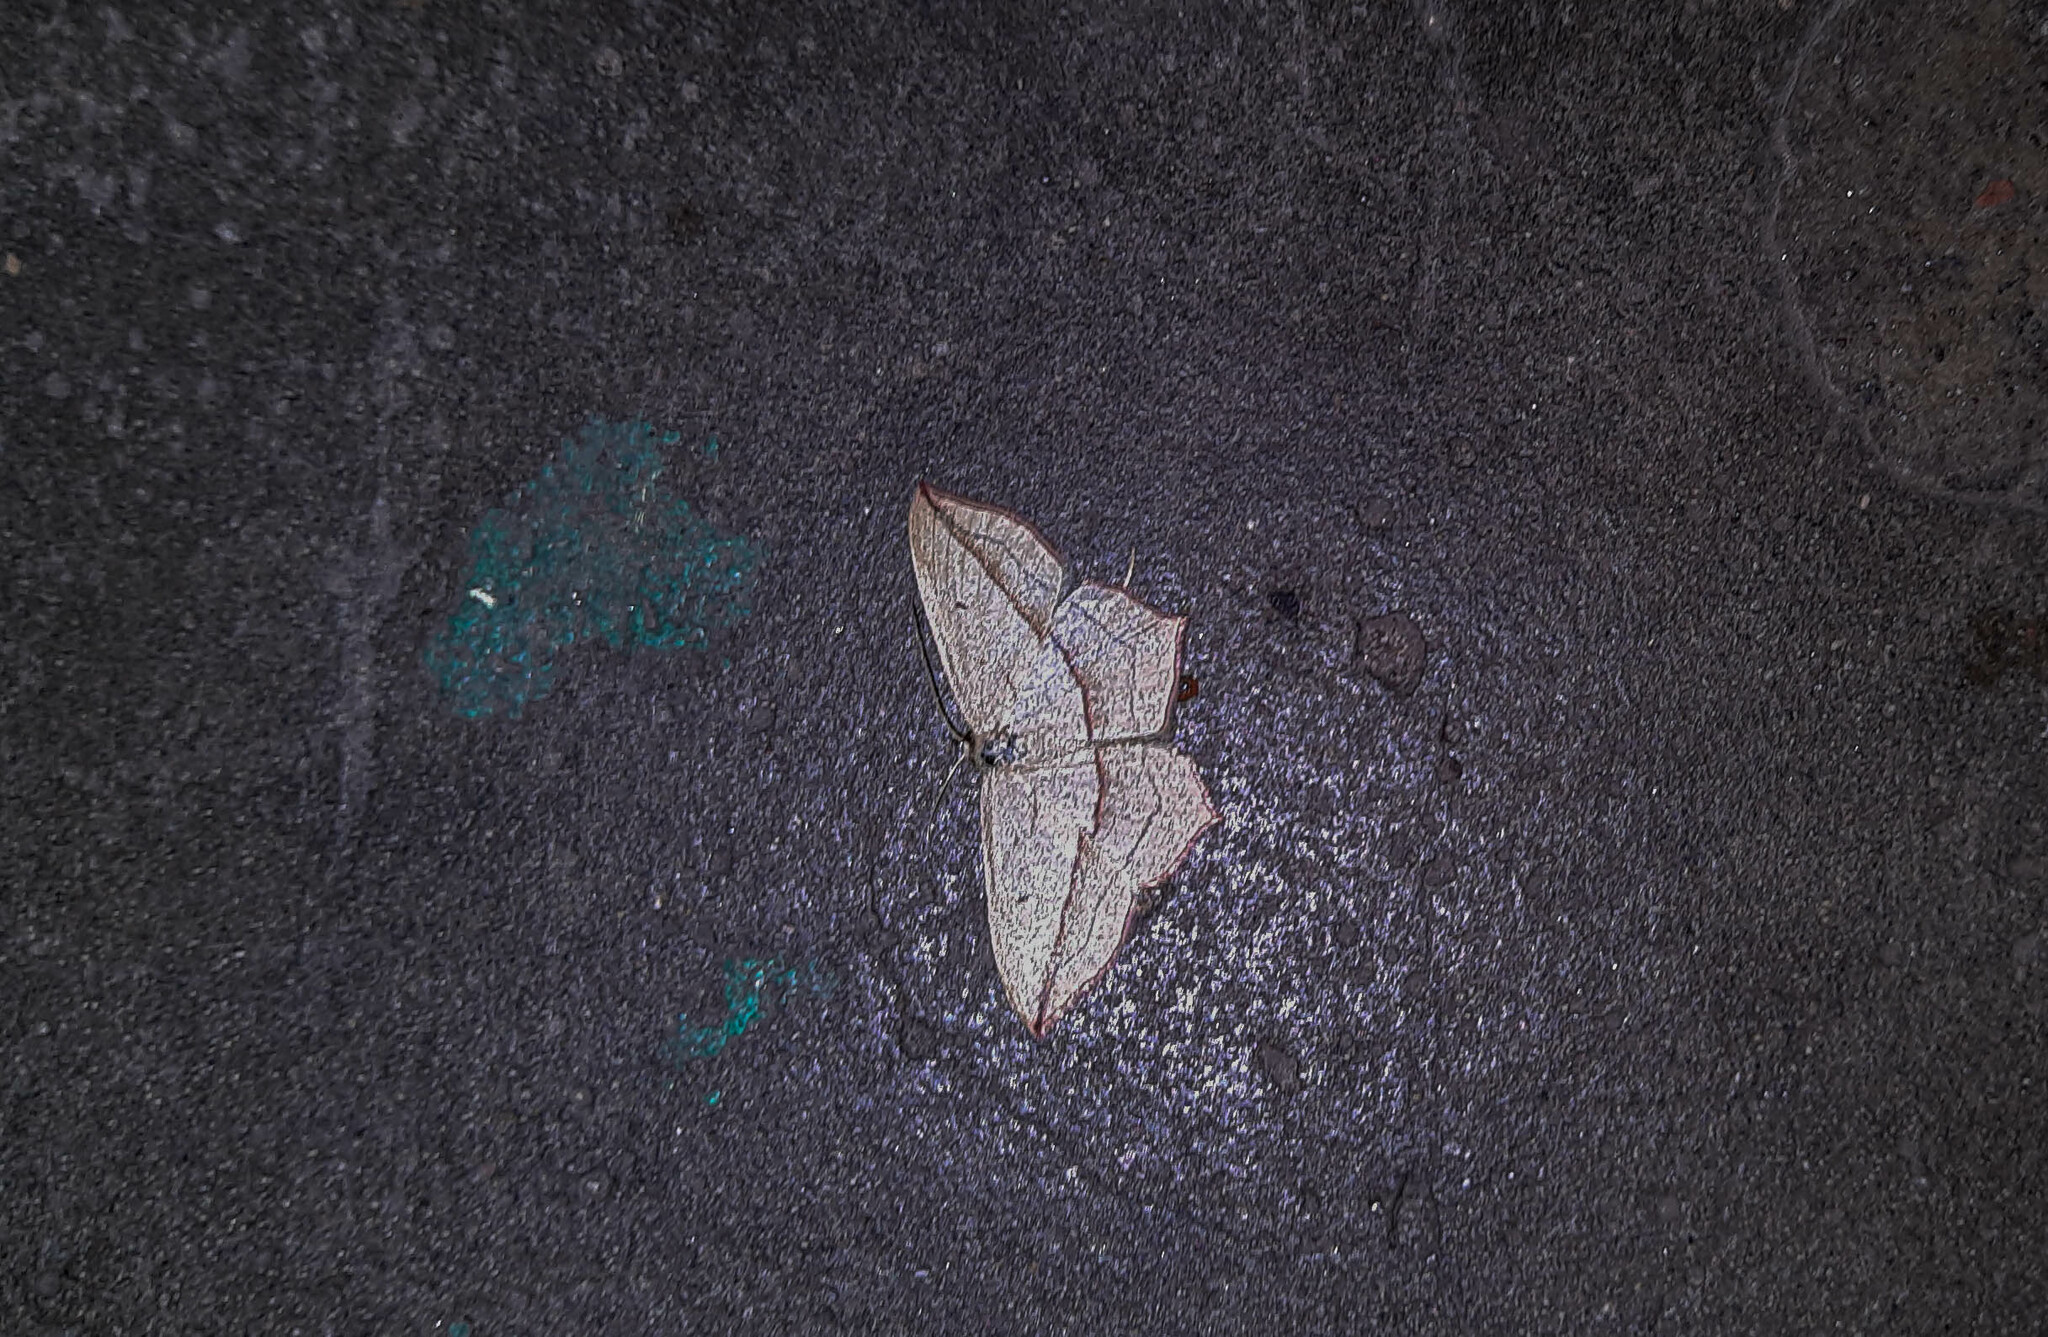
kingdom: Animalia
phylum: Arthropoda
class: Insecta
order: Lepidoptera
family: Geometridae
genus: Timandra
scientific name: Timandra comae
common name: Blood-vein
